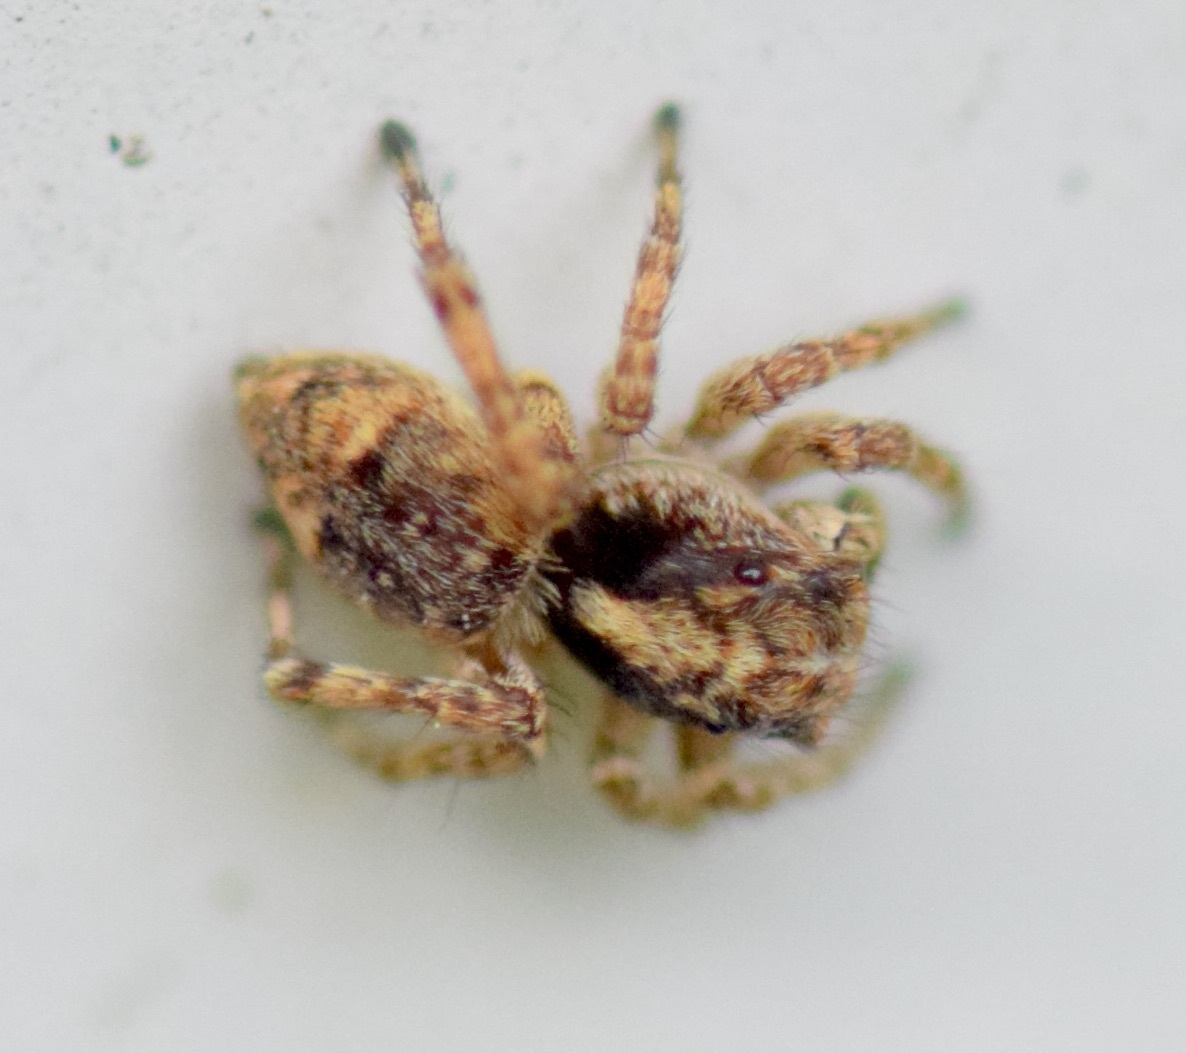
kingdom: Animalia
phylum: Arthropoda
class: Arachnida
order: Araneae
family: Salticidae
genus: Attulus
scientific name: Attulus fasciger
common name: Asiatic wall jumping spider
